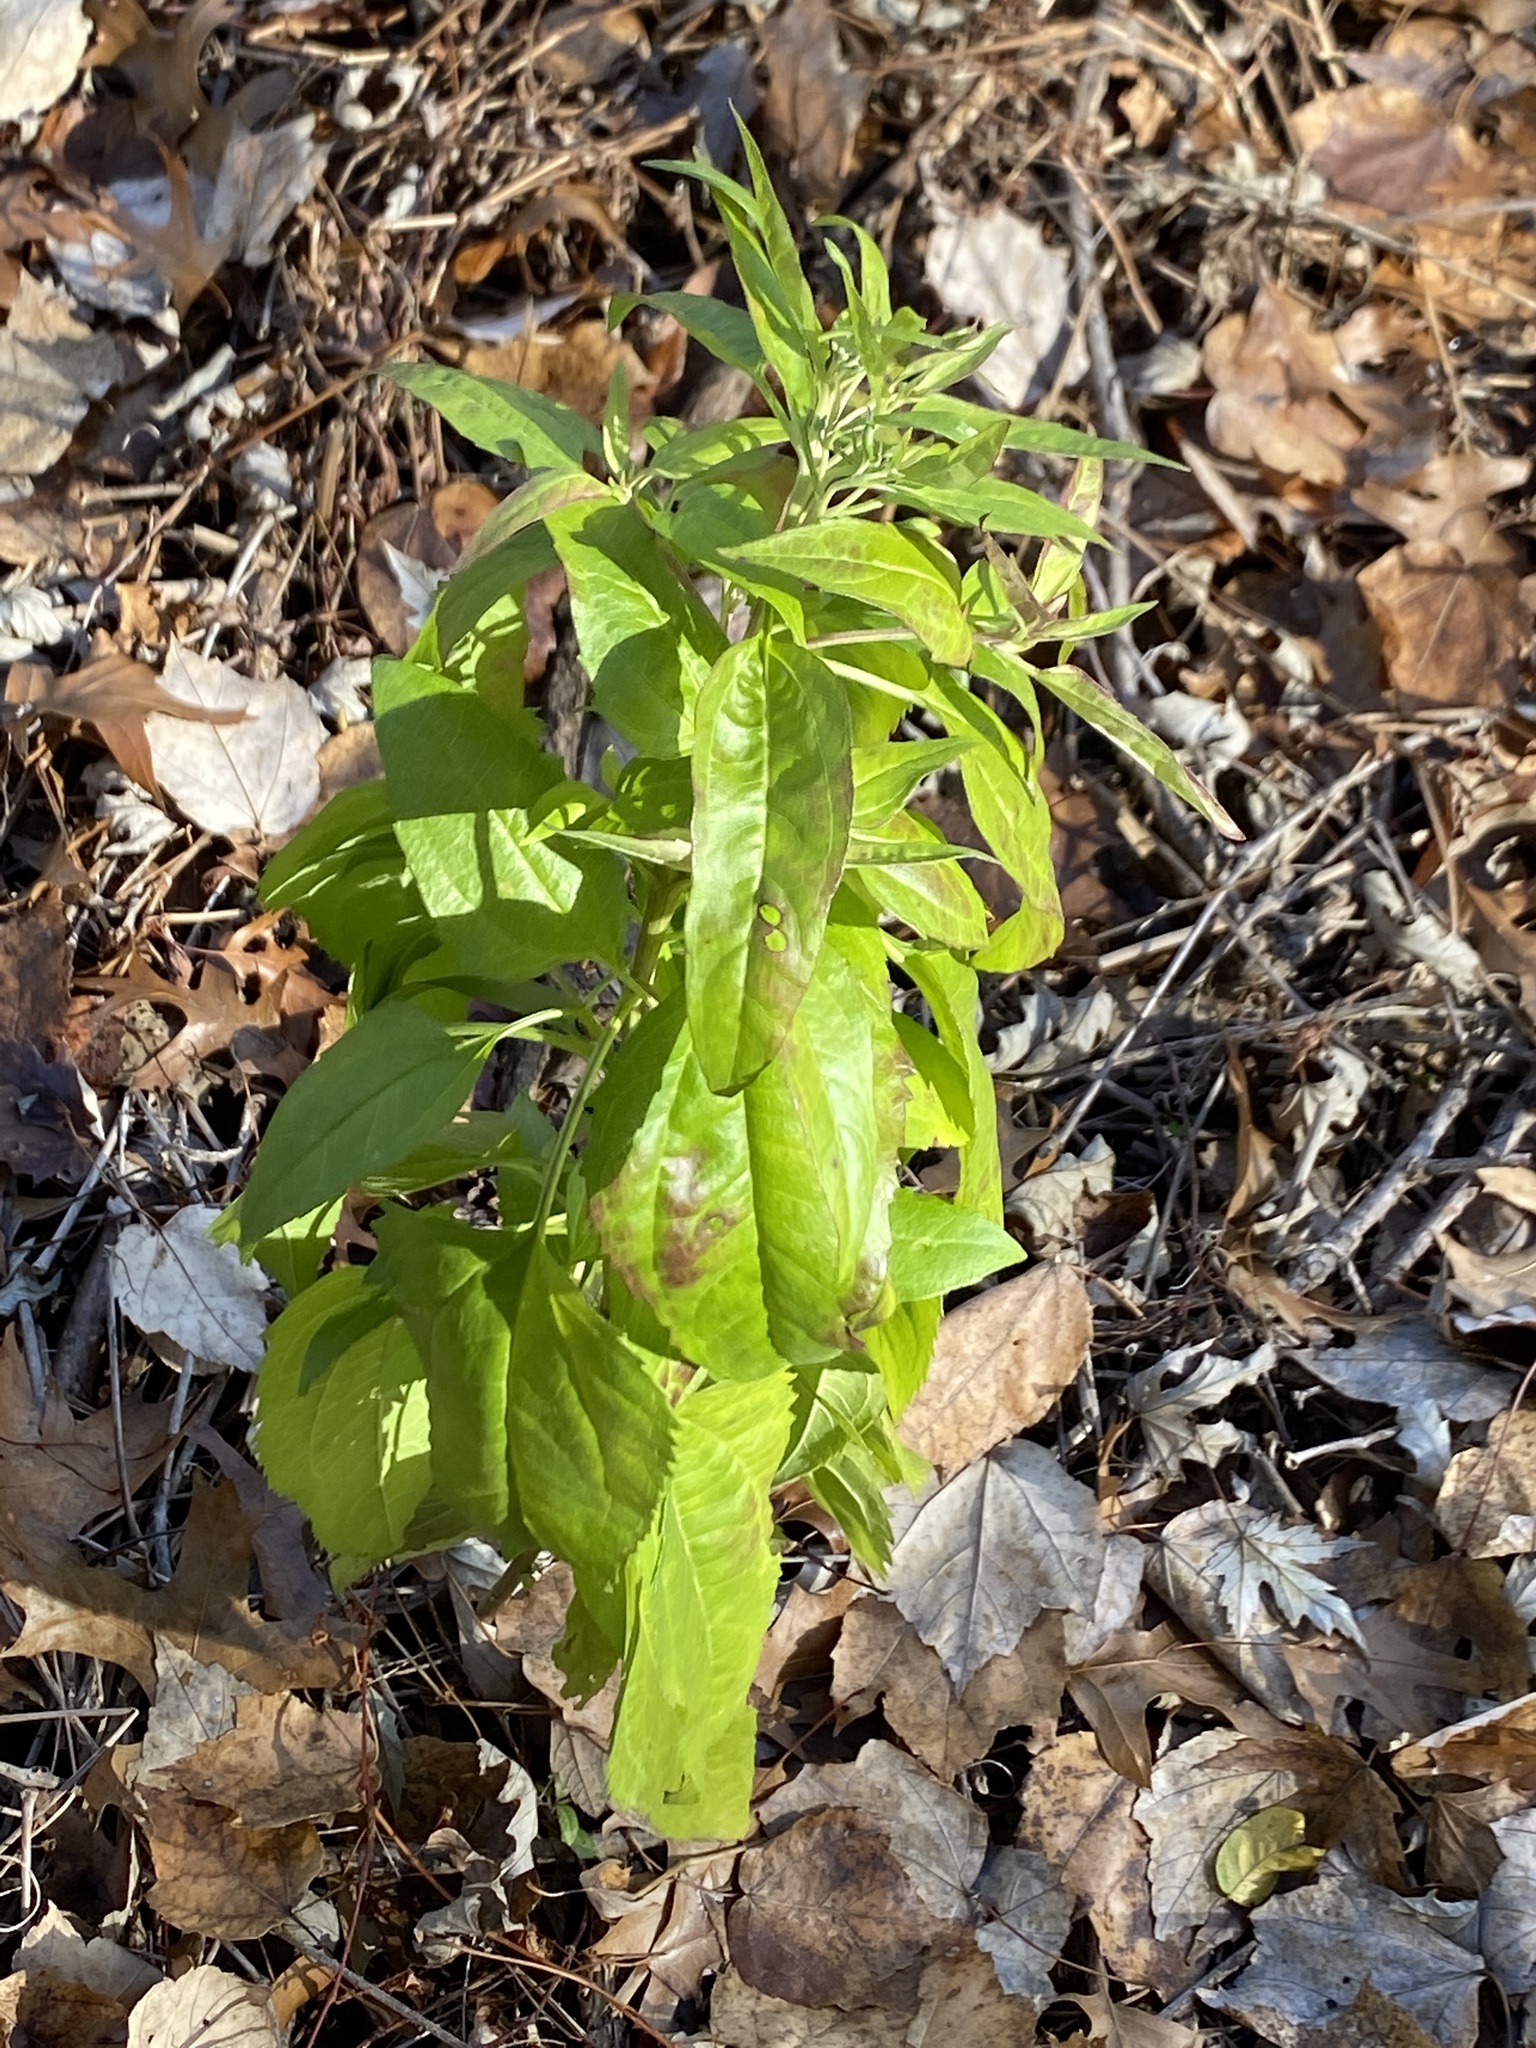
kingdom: Plantae
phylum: Tracheophyta
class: Magnoliopsida
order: Asterales
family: Asteraceae
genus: Eupatorium
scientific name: Eupatorium serotinum
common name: Late boneset
